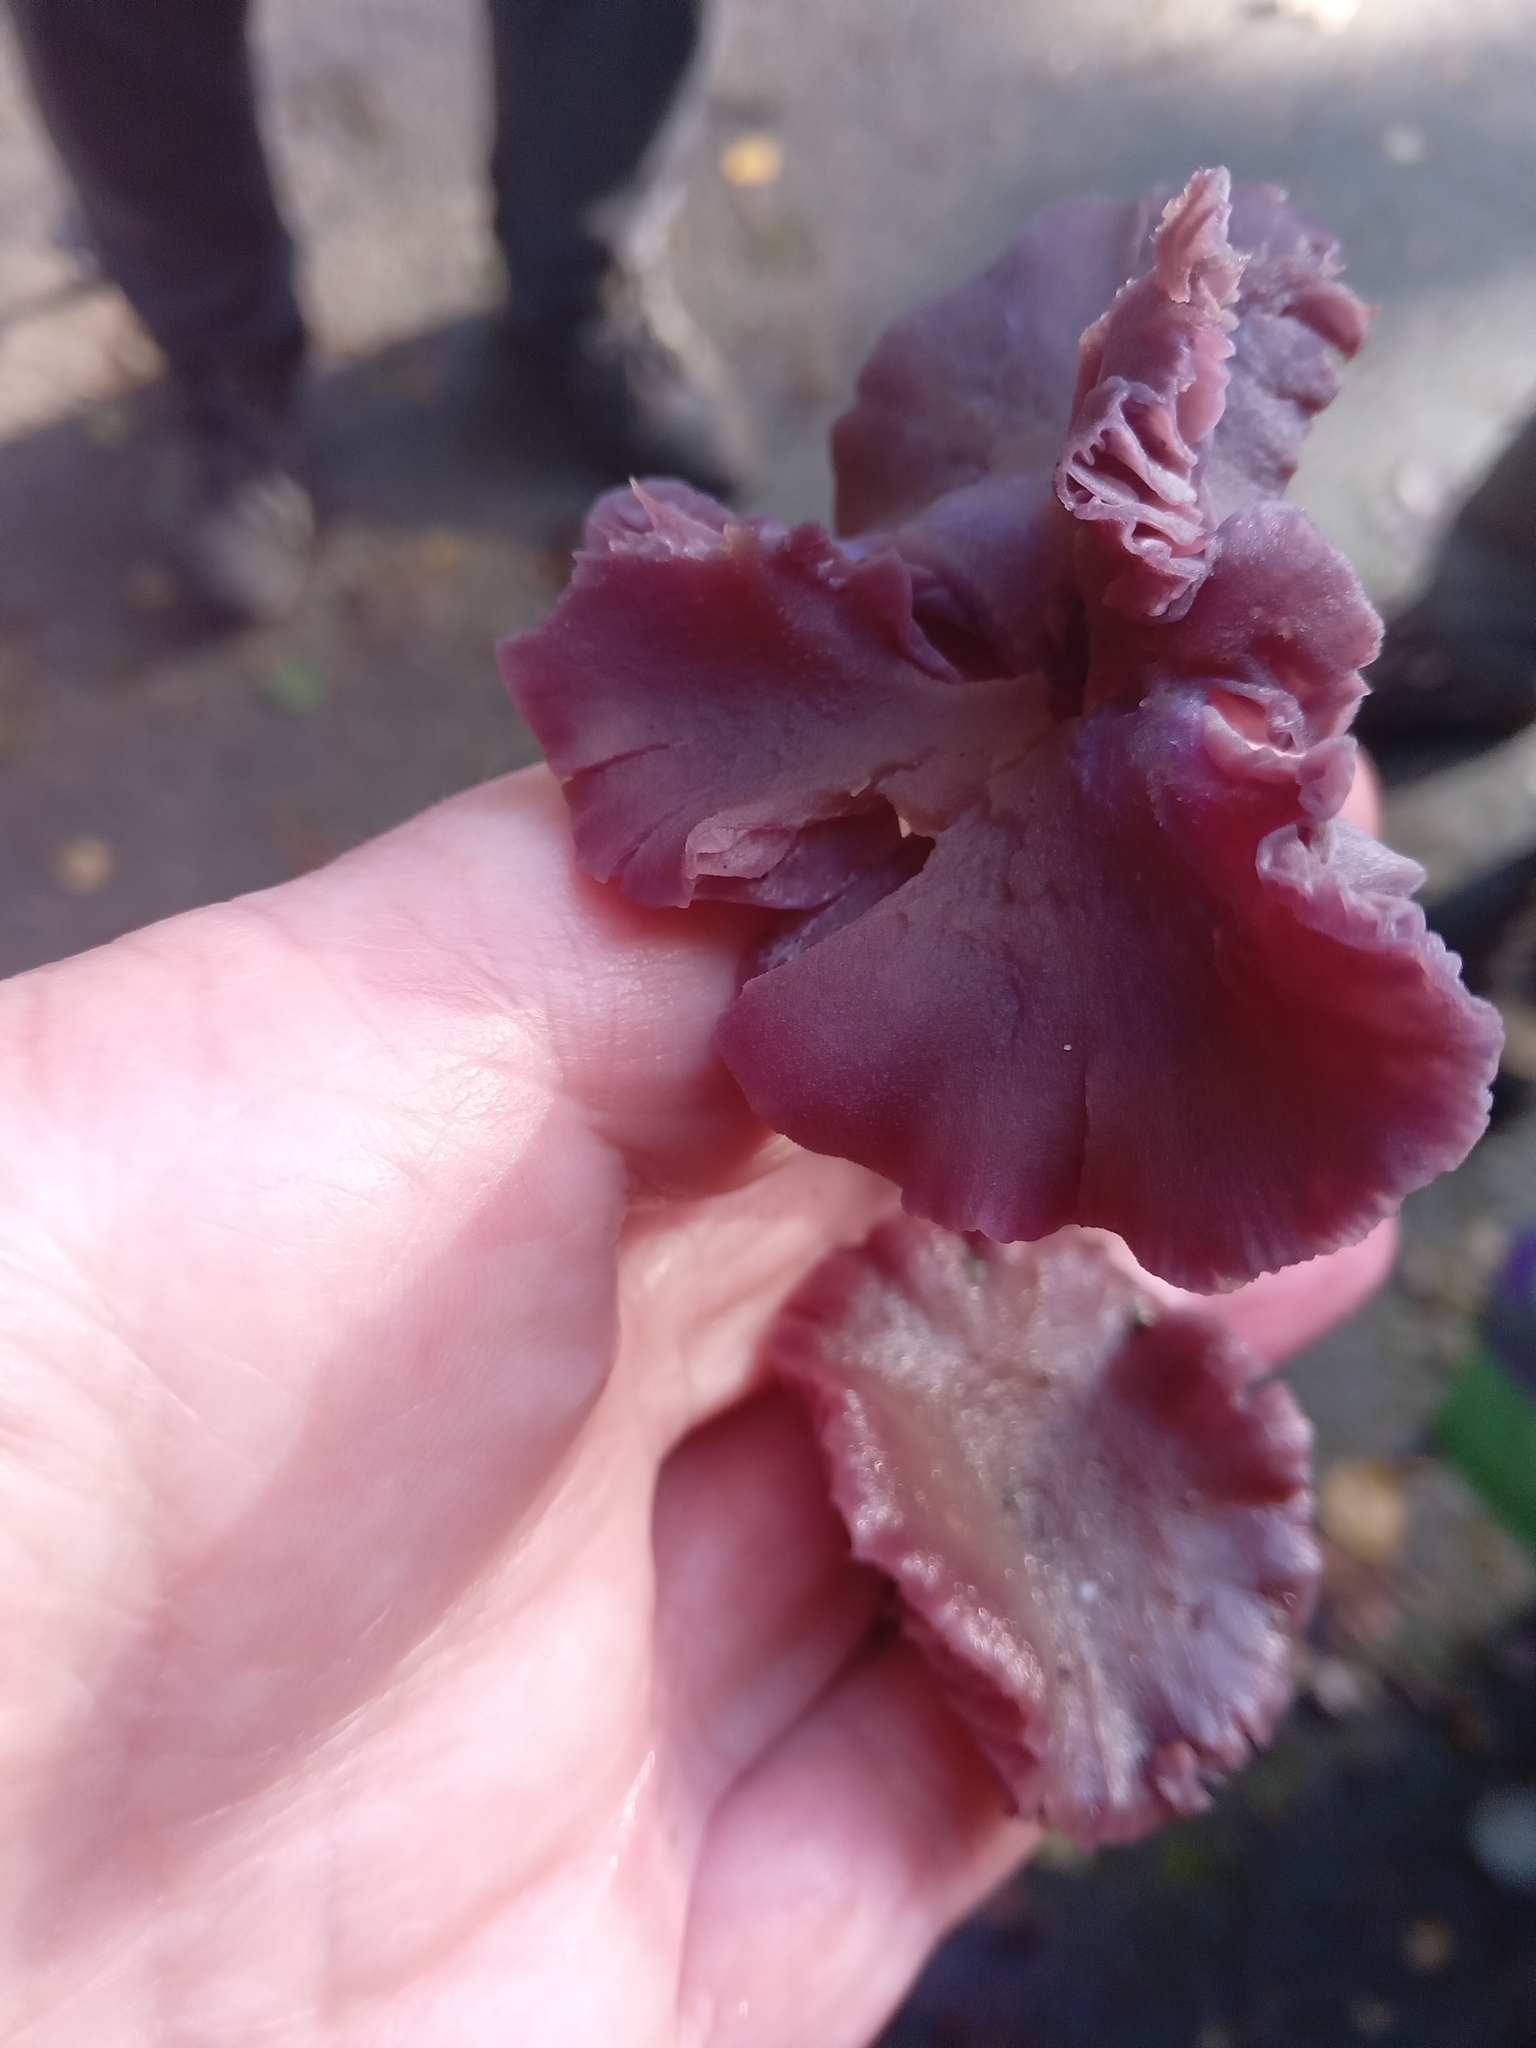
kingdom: Fungi
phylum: Basidiomycota
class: Agaricomycetes
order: Agaricales
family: Hydnangiaceae
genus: Laccaria
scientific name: Laccaria amethystina
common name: Amethyst deceiver
